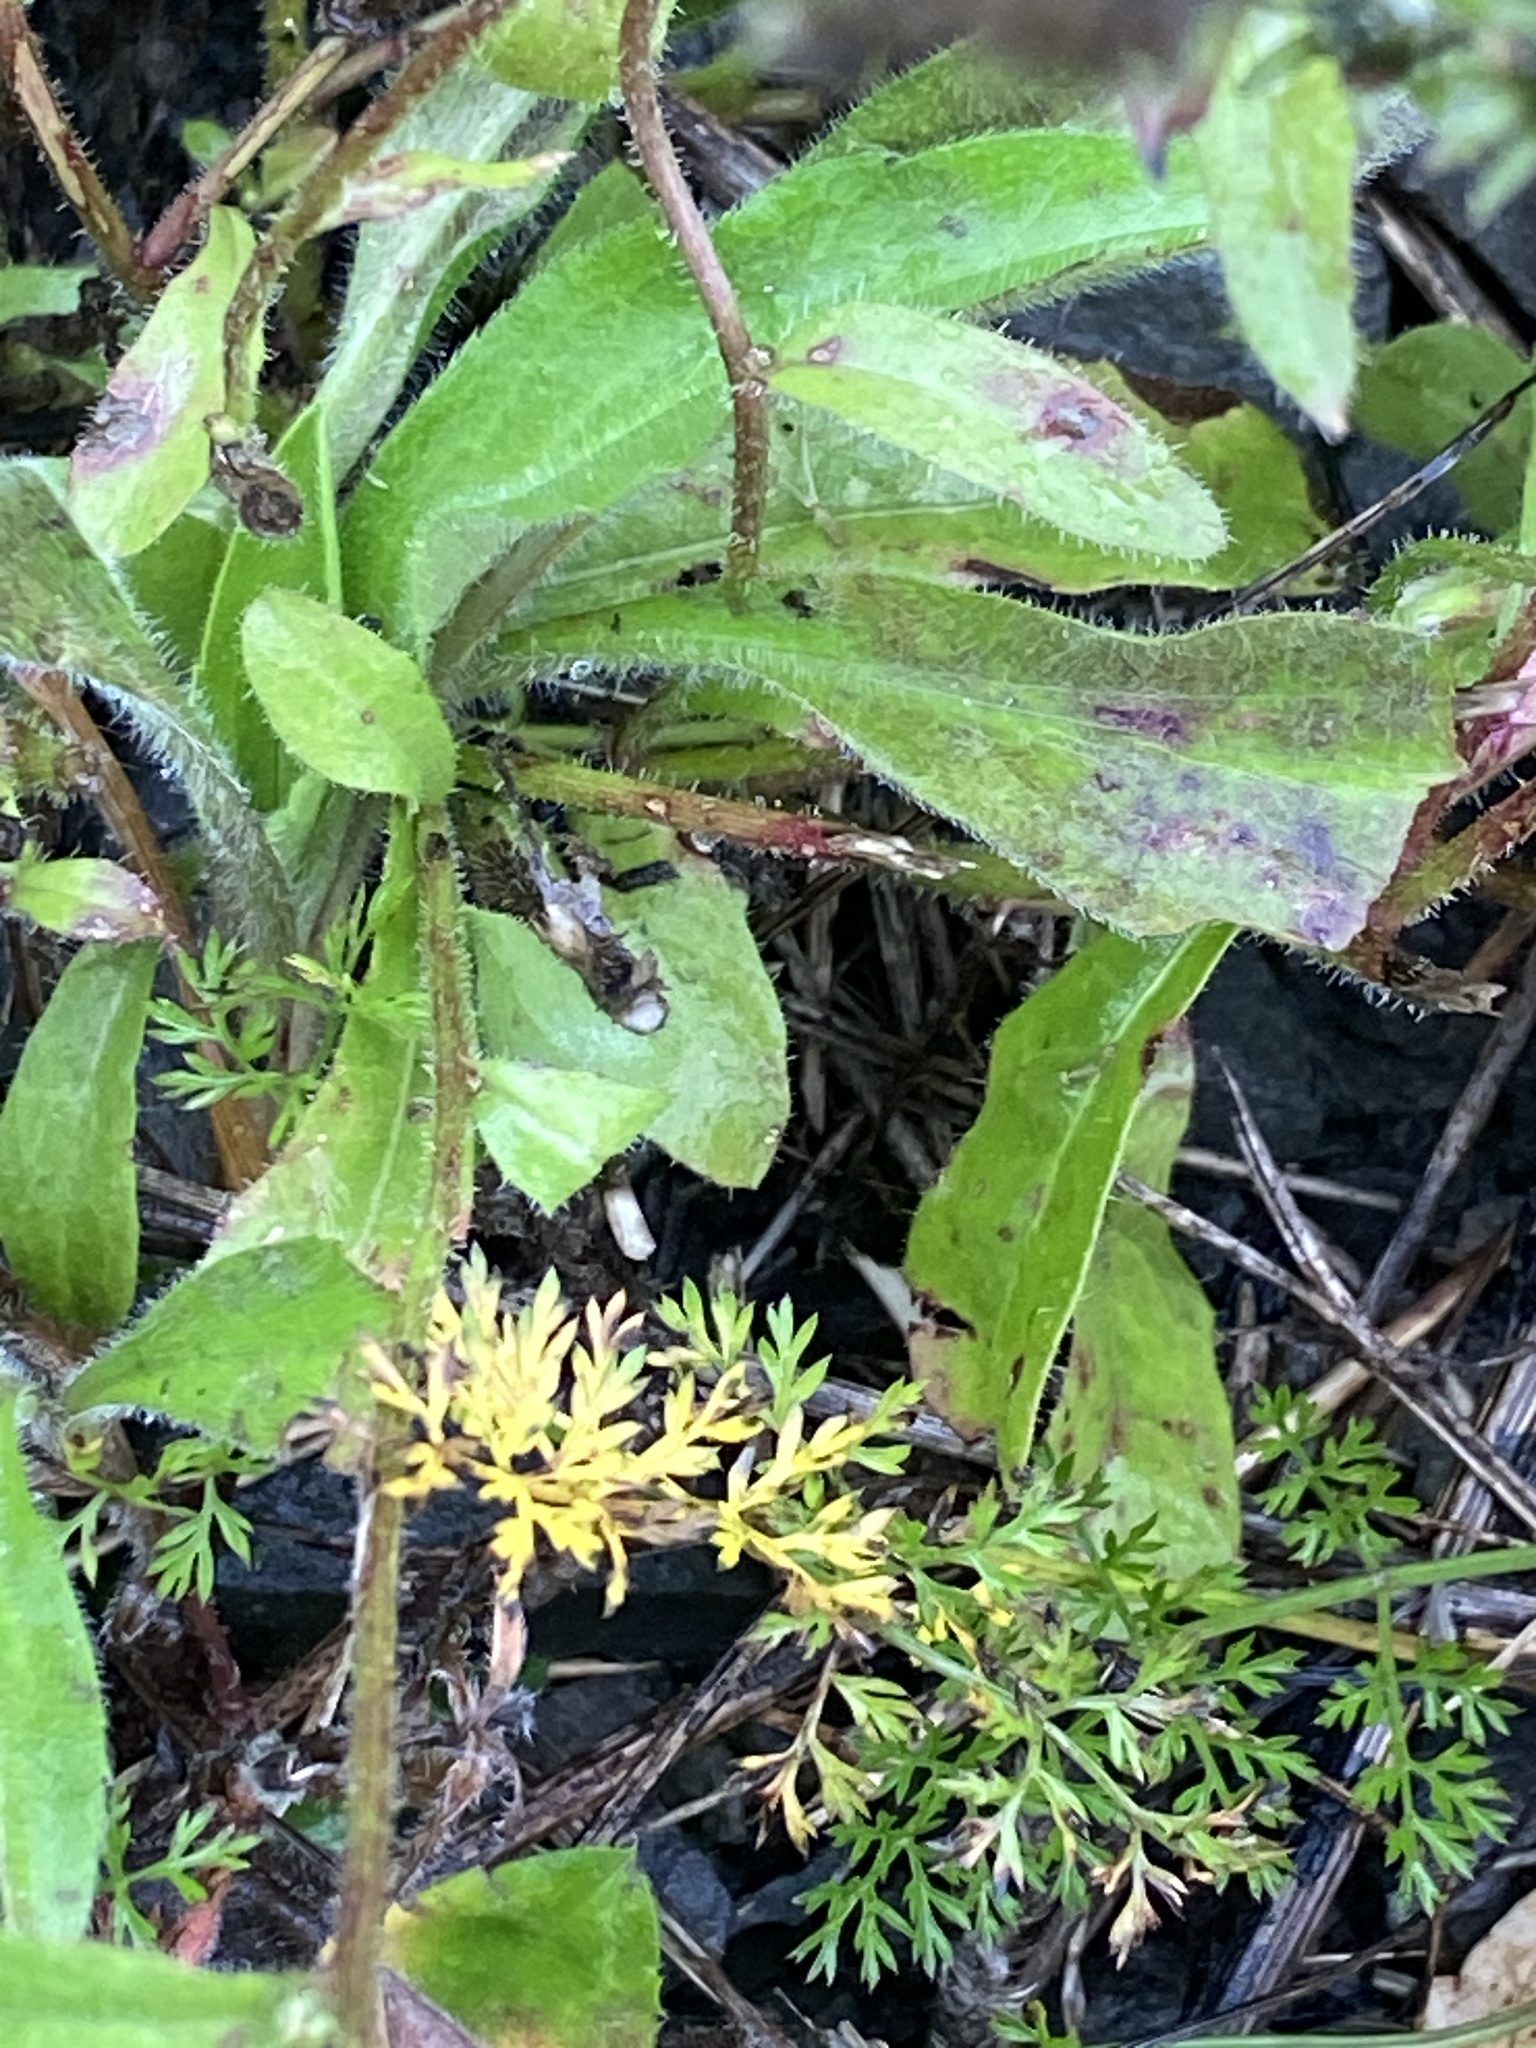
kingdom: Plantae
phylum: Tracheophyta
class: Magnoliopsida
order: Asterales
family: Asteraceae
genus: Picris
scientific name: Picris hieracioides
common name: Hawkweed oxtongue
